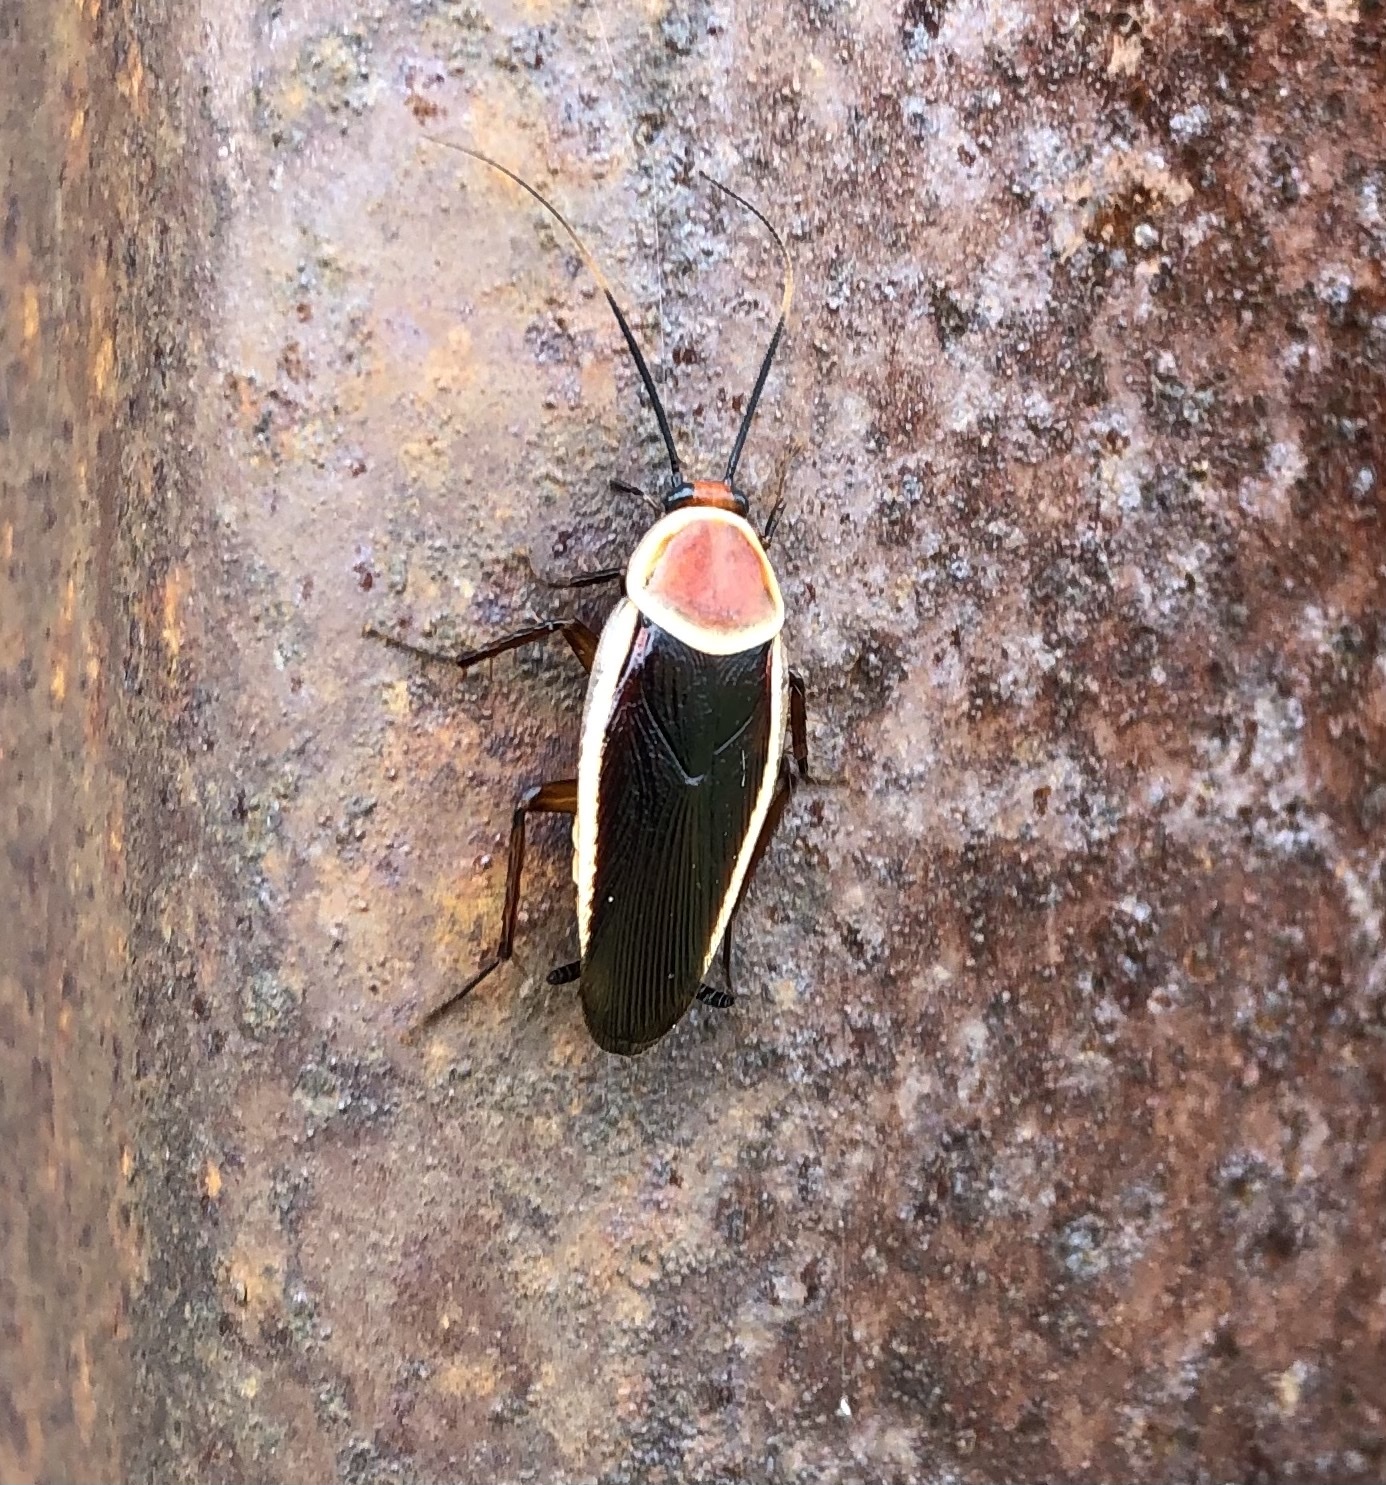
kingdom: Animalia
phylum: Arthropoda
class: Insecta
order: Blattodea
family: Ectobiidae
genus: Pseudomops
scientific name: Pseudomops septentrionalis
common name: Pale-bordered field cockroach
